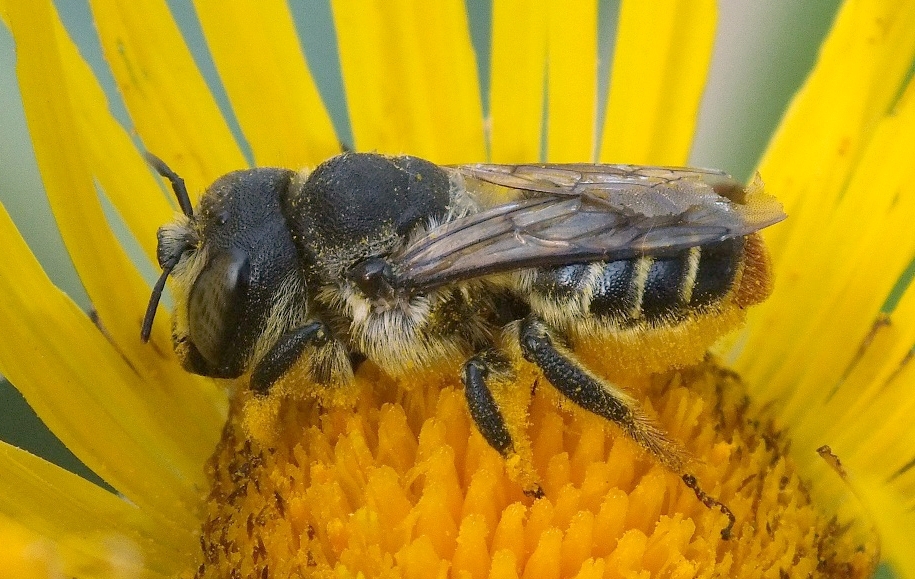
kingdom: Animalia
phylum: Arthropoda
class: Insecta
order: Hymenoptera
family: Megachilidae
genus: Lithurgus
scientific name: Lithurgus cornutus
